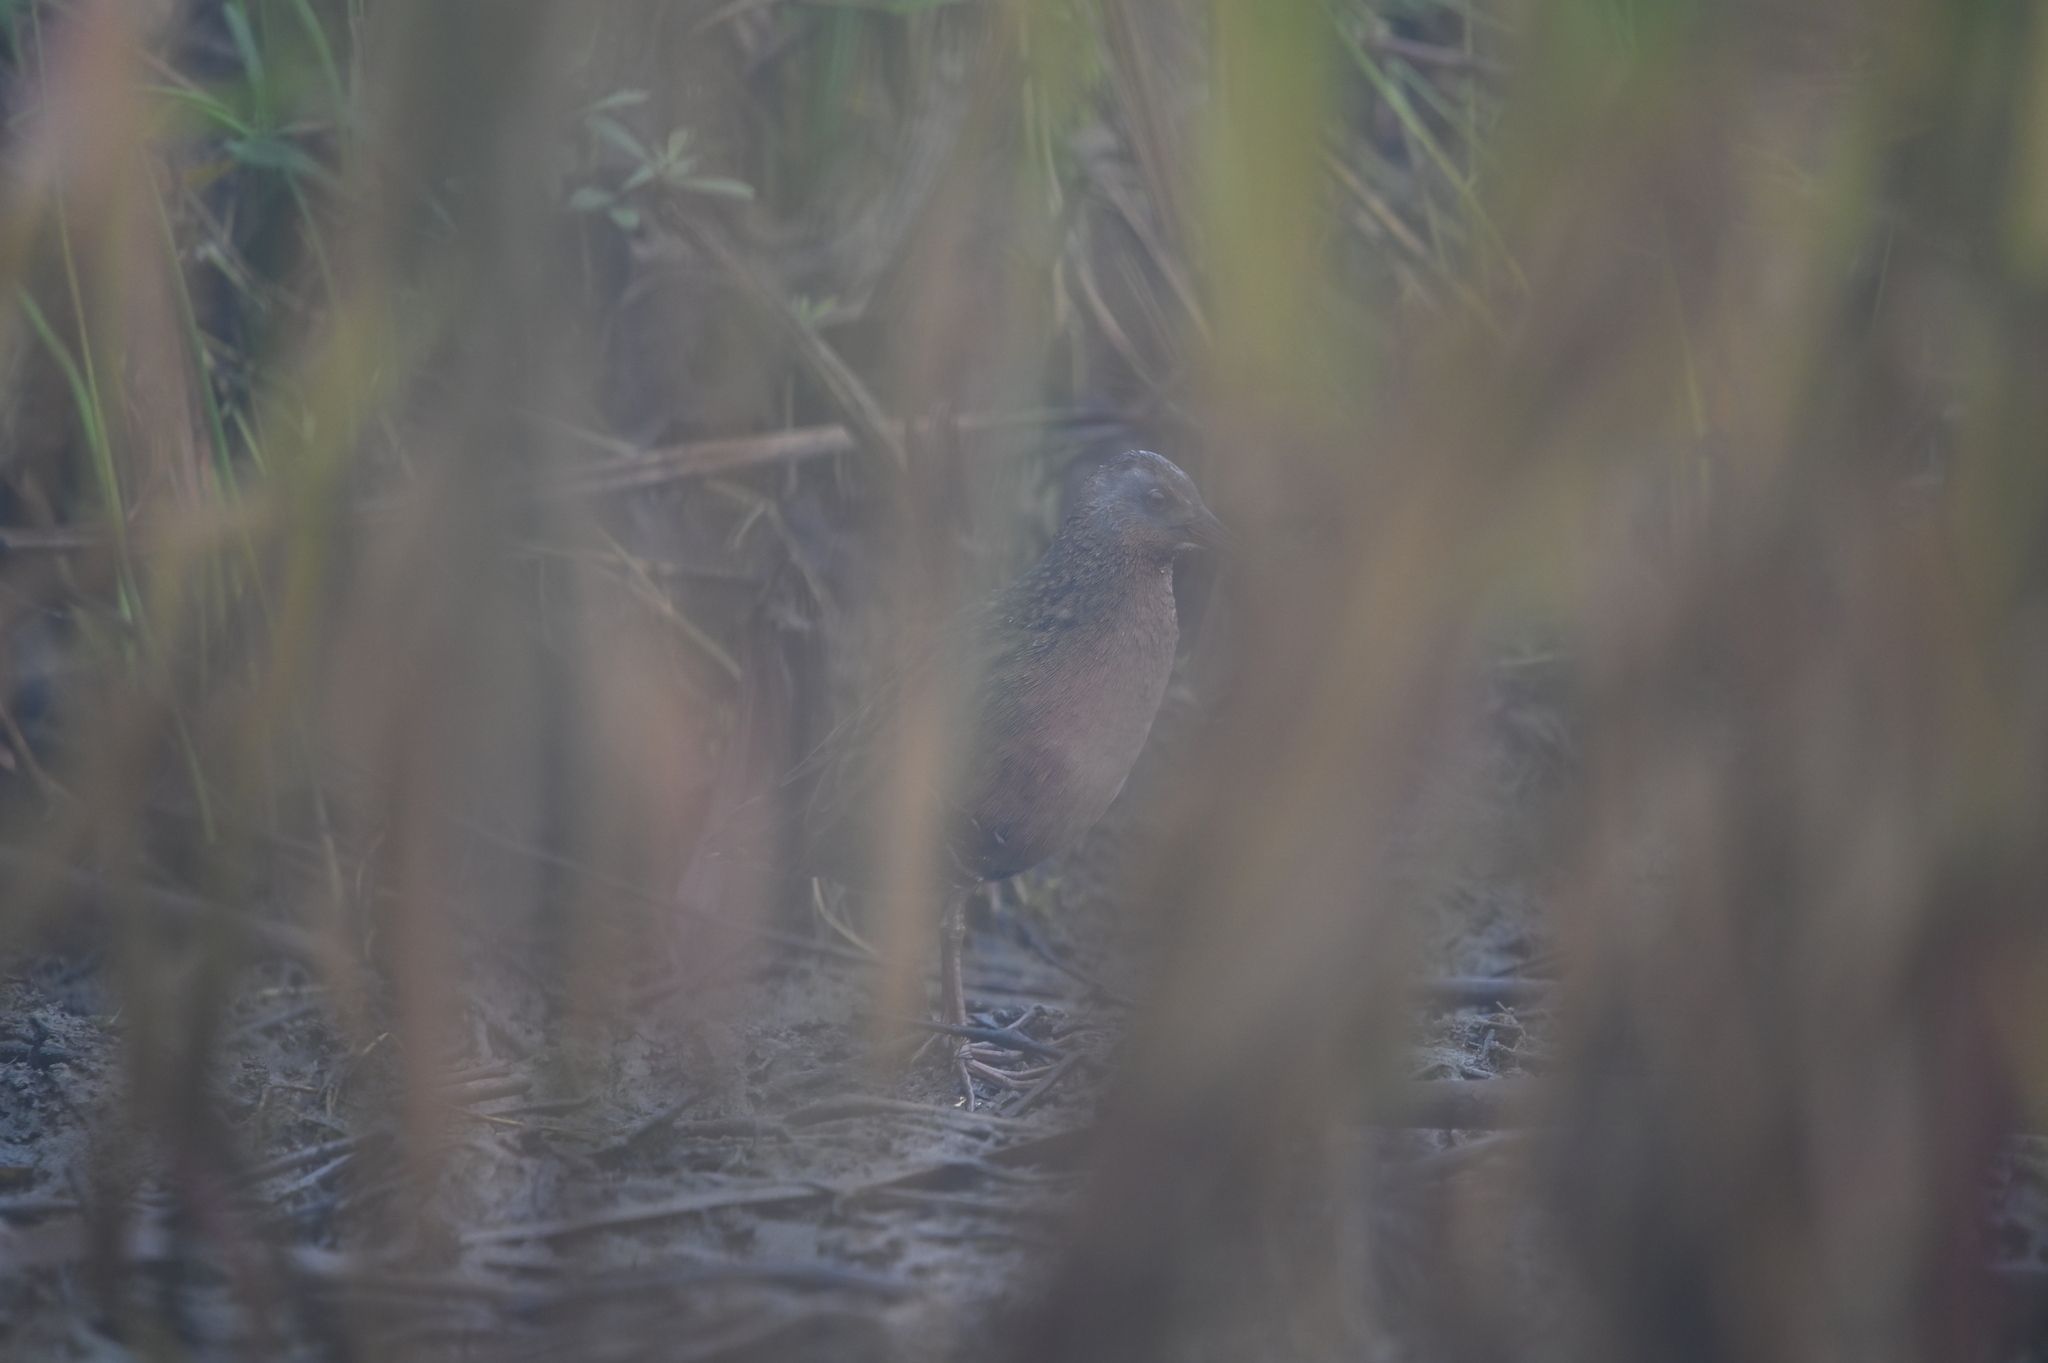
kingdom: Animalia
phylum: Chordata
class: Aves
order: Gruiformes
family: Rallidae
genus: Rallus
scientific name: Rallus limicola
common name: Virginia rail
